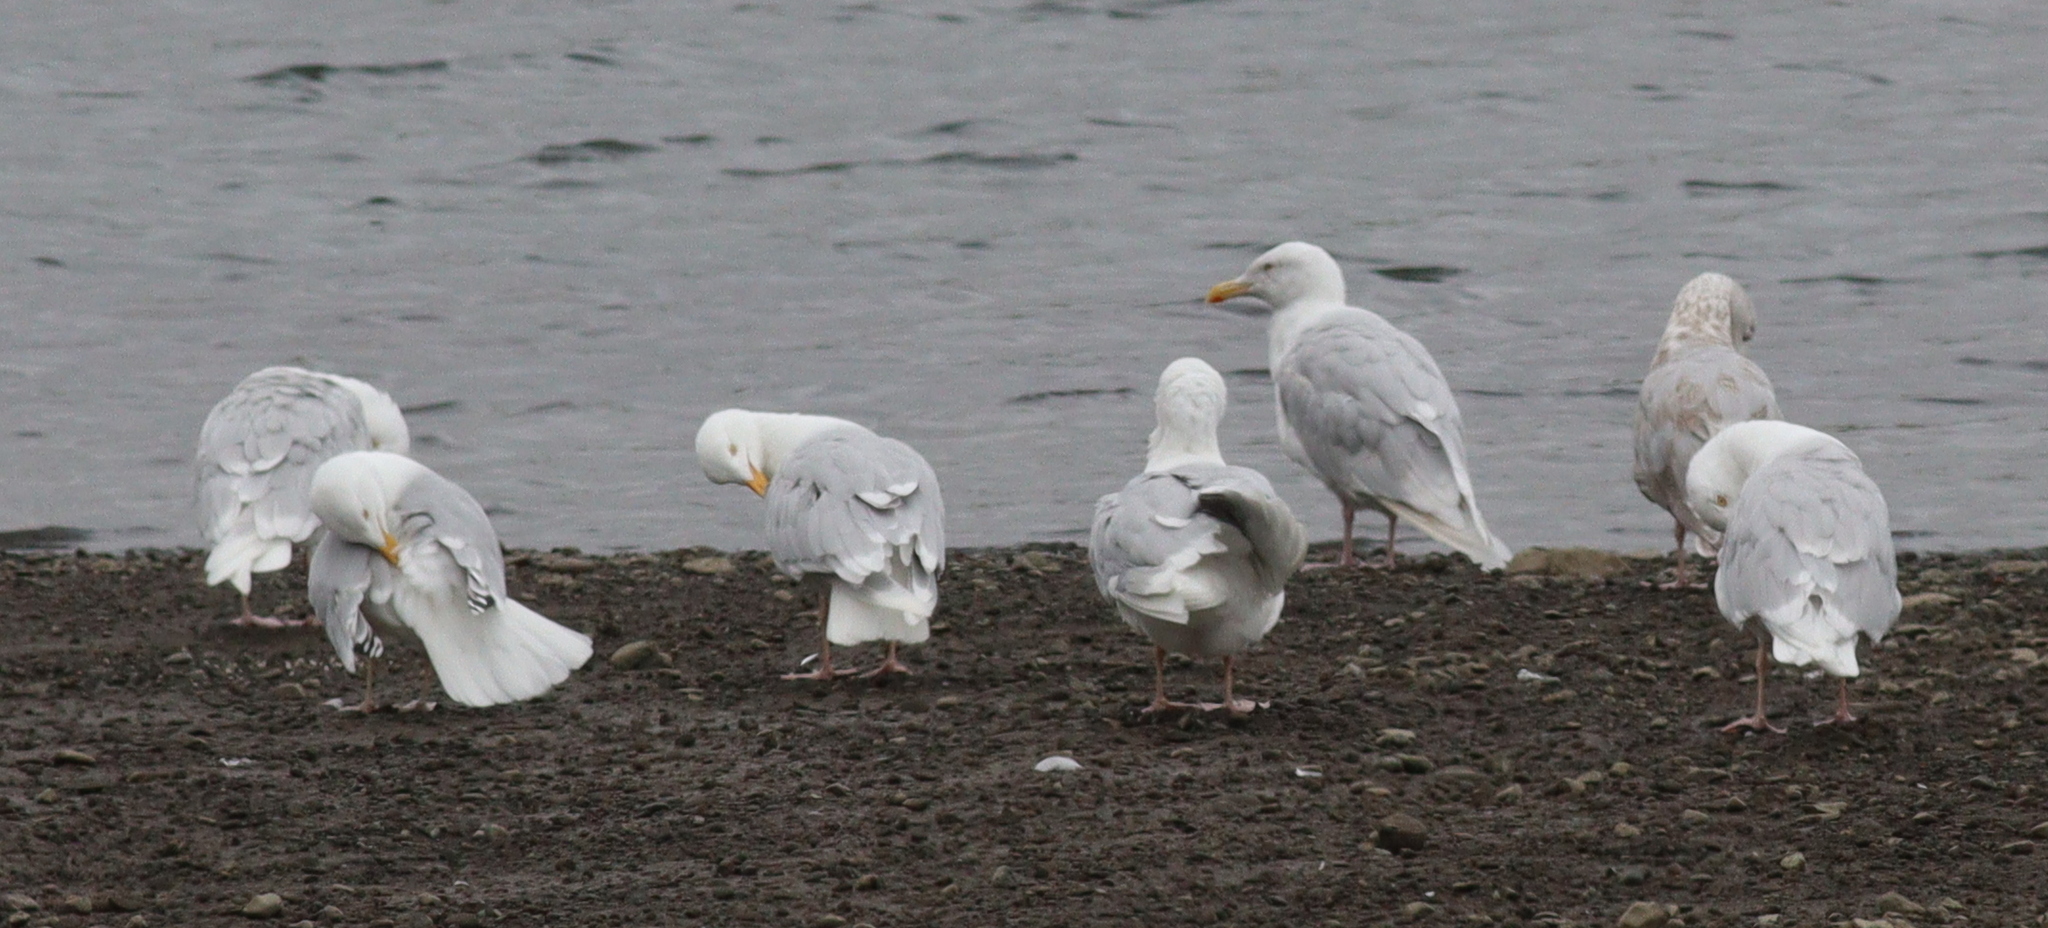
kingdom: Animalia
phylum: Chordata
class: Aves
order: Charadriiformes
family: Laridae
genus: Larus
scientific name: Larus hyperboreus
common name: Glaucous gull
